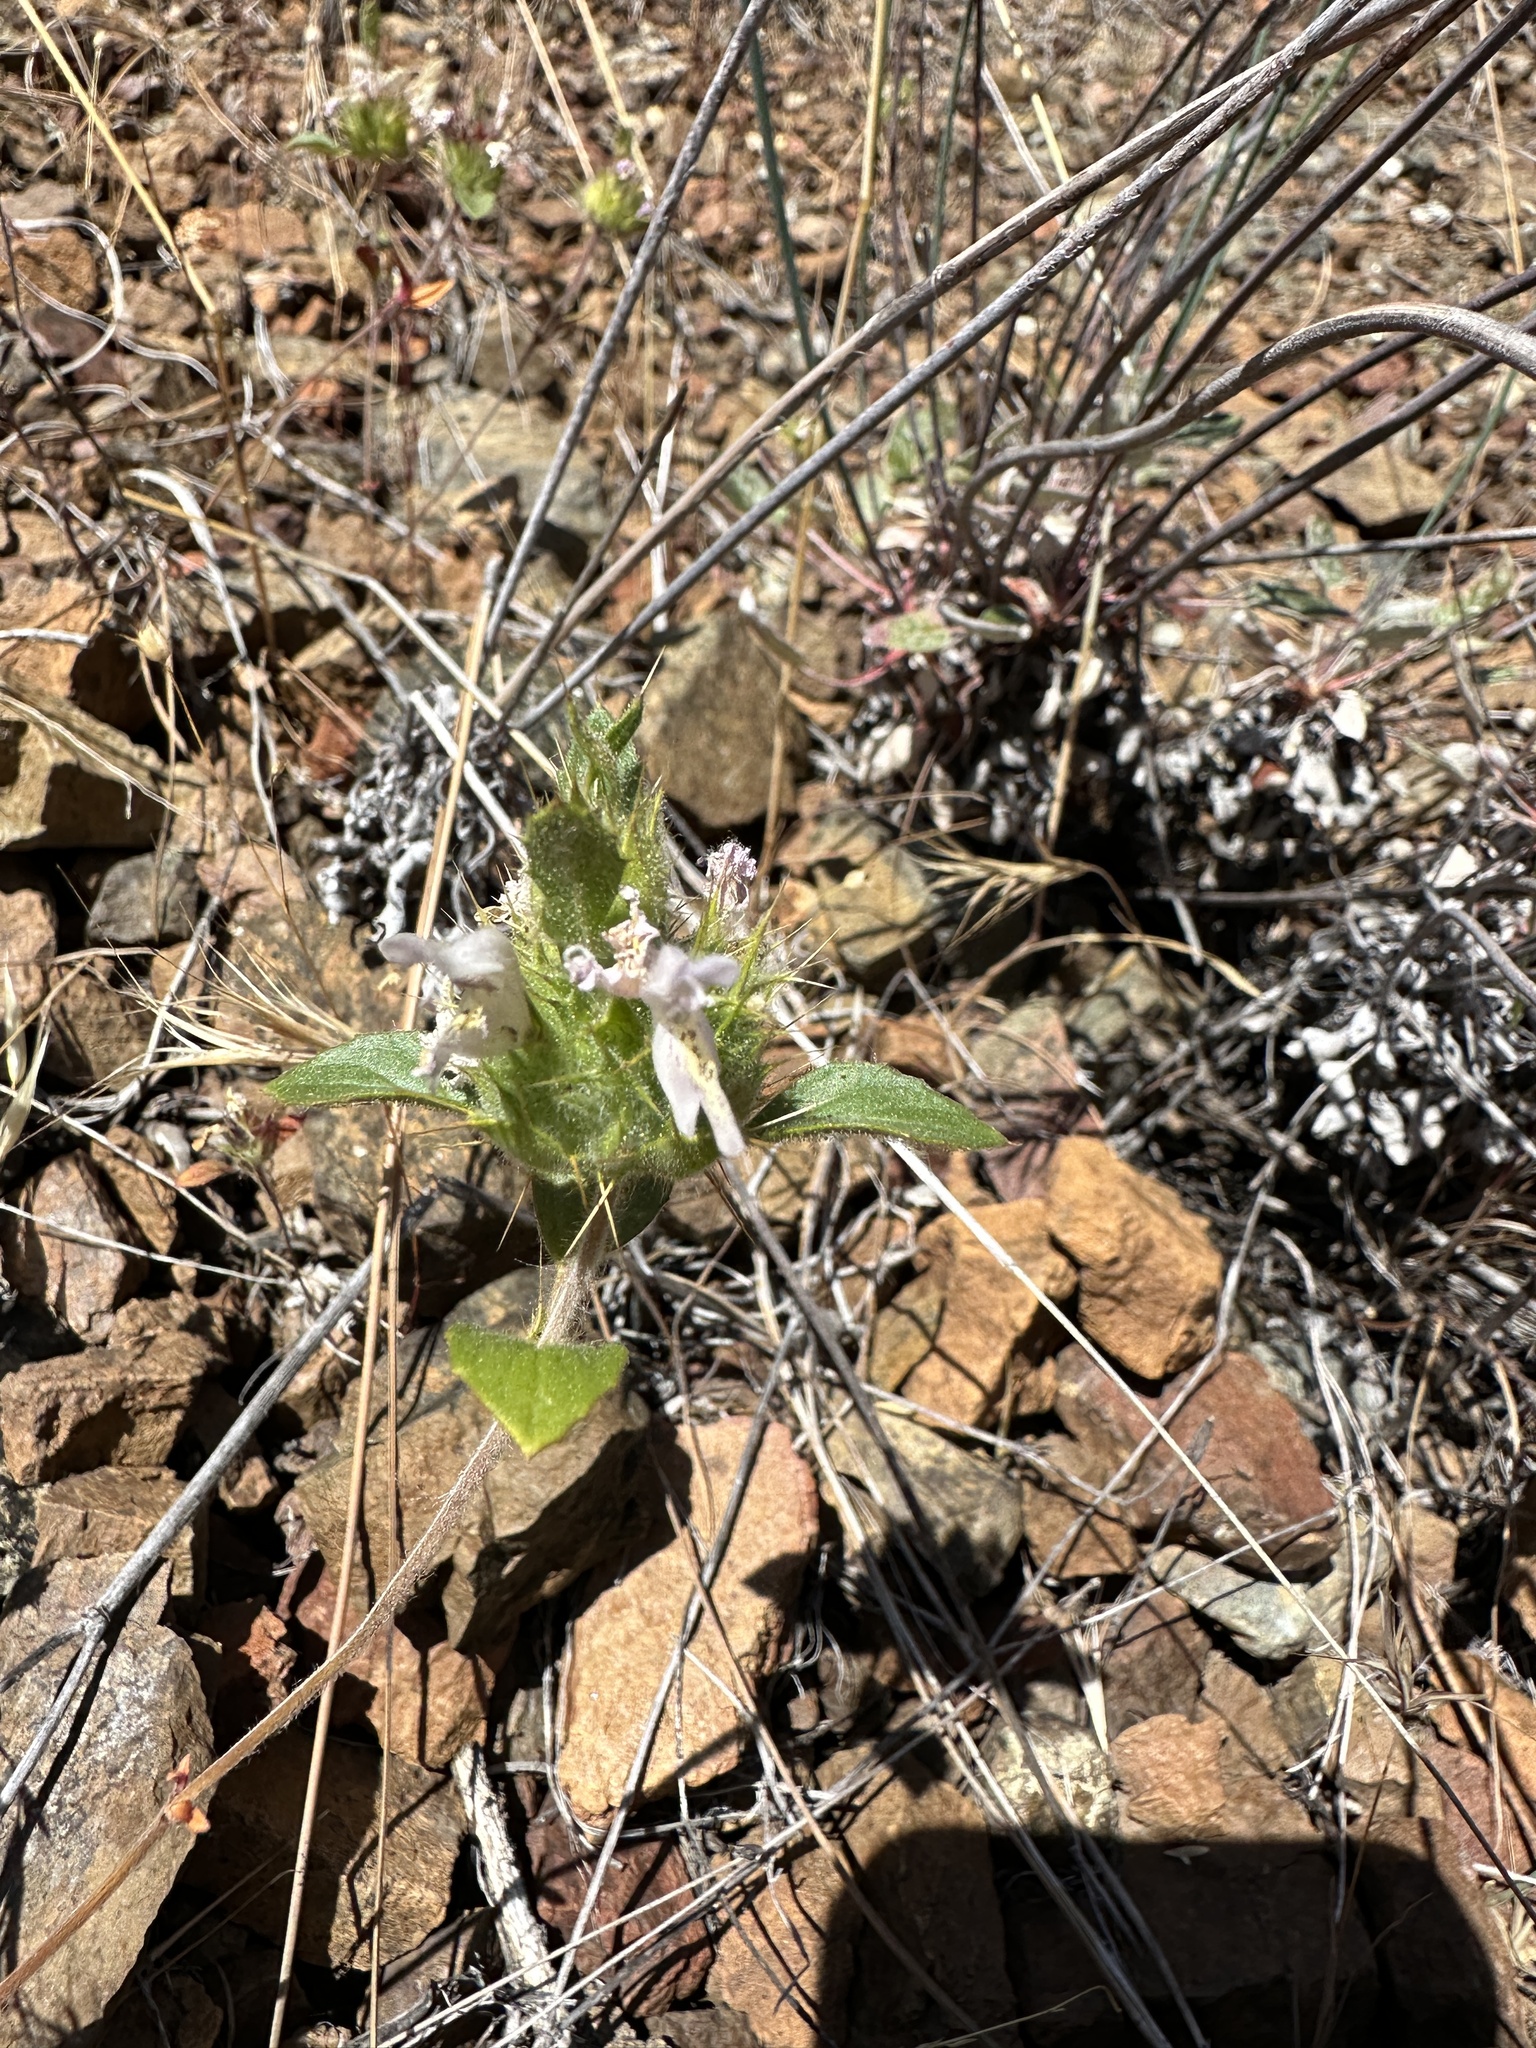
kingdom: Plantae
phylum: Tracheophyta
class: Magnoliopsida
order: Lamiales
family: Lamiaceae
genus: Acanthomintha
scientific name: Acanthomintha lanceolata
